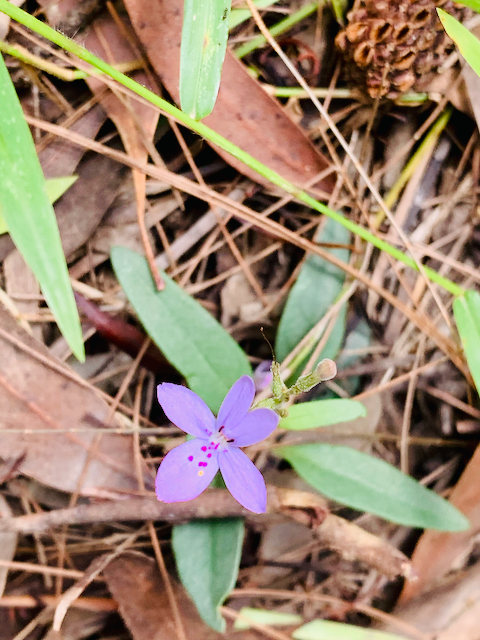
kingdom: Plantae
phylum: Tracheophyta
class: Magnoliopsida
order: Lamiales
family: Acanthaceae
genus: Pseuderanthemum
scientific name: Pseuderanthemum variabile
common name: Night and afternoon
